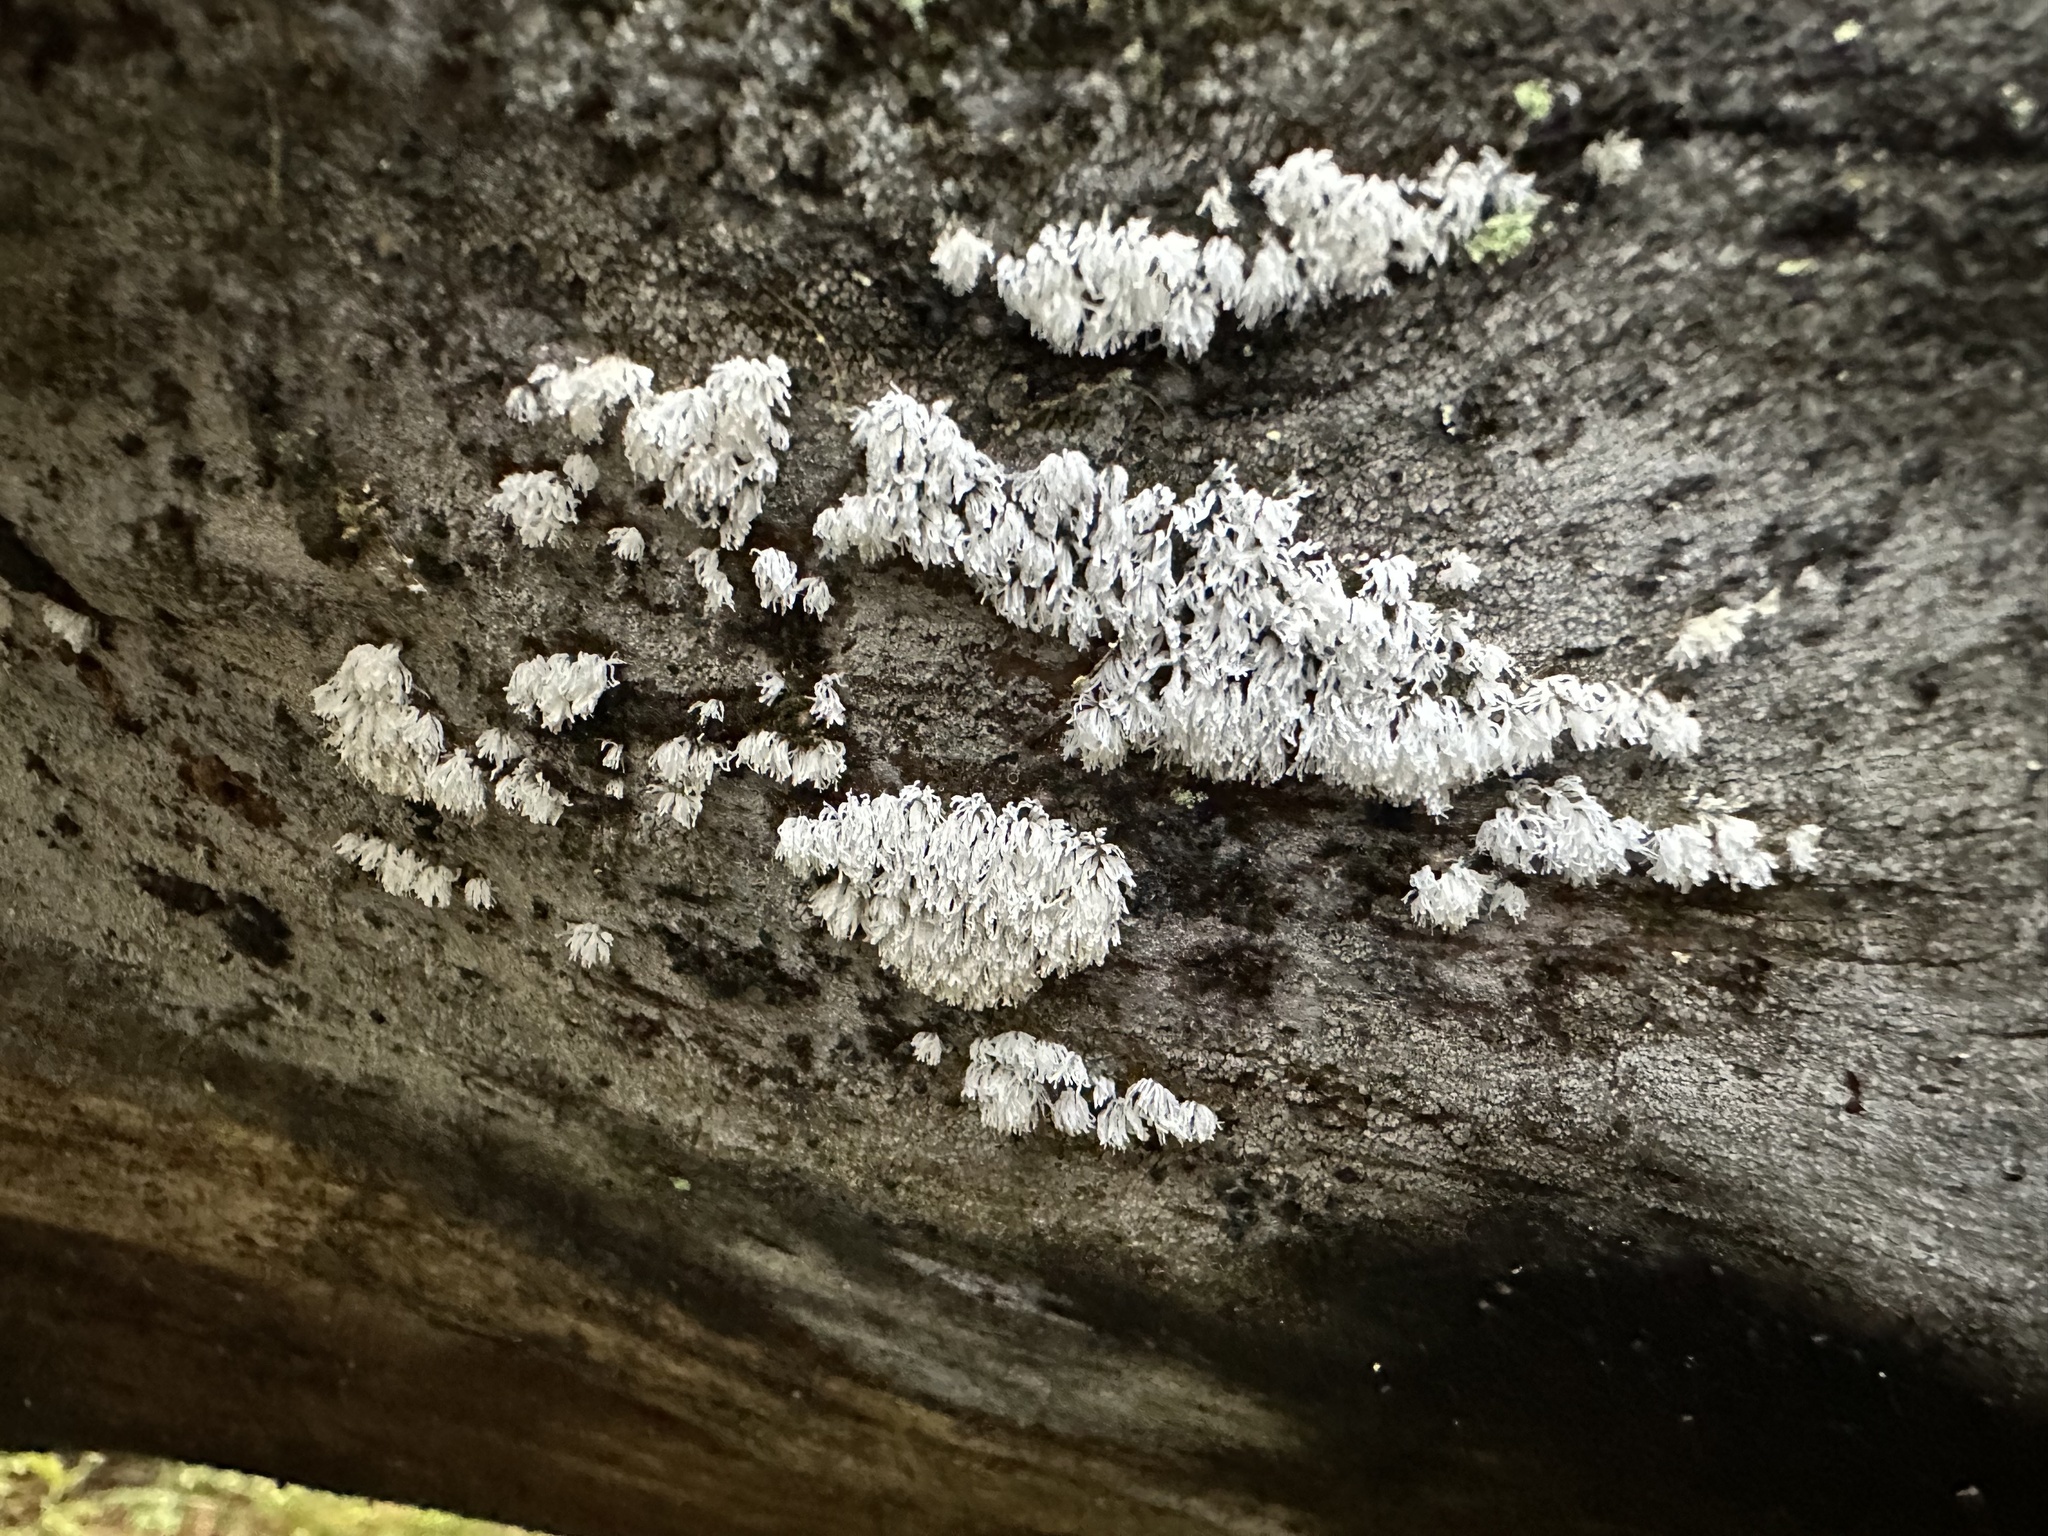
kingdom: Protozoa
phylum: Mycetozoa
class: Protosteliomycetes
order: Ceratiomyxales
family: Ceratiomyxaceae
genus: Ceratiomyxa
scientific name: Ceratiomyxa fruticulosa
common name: Honeycomb coral slime mold
